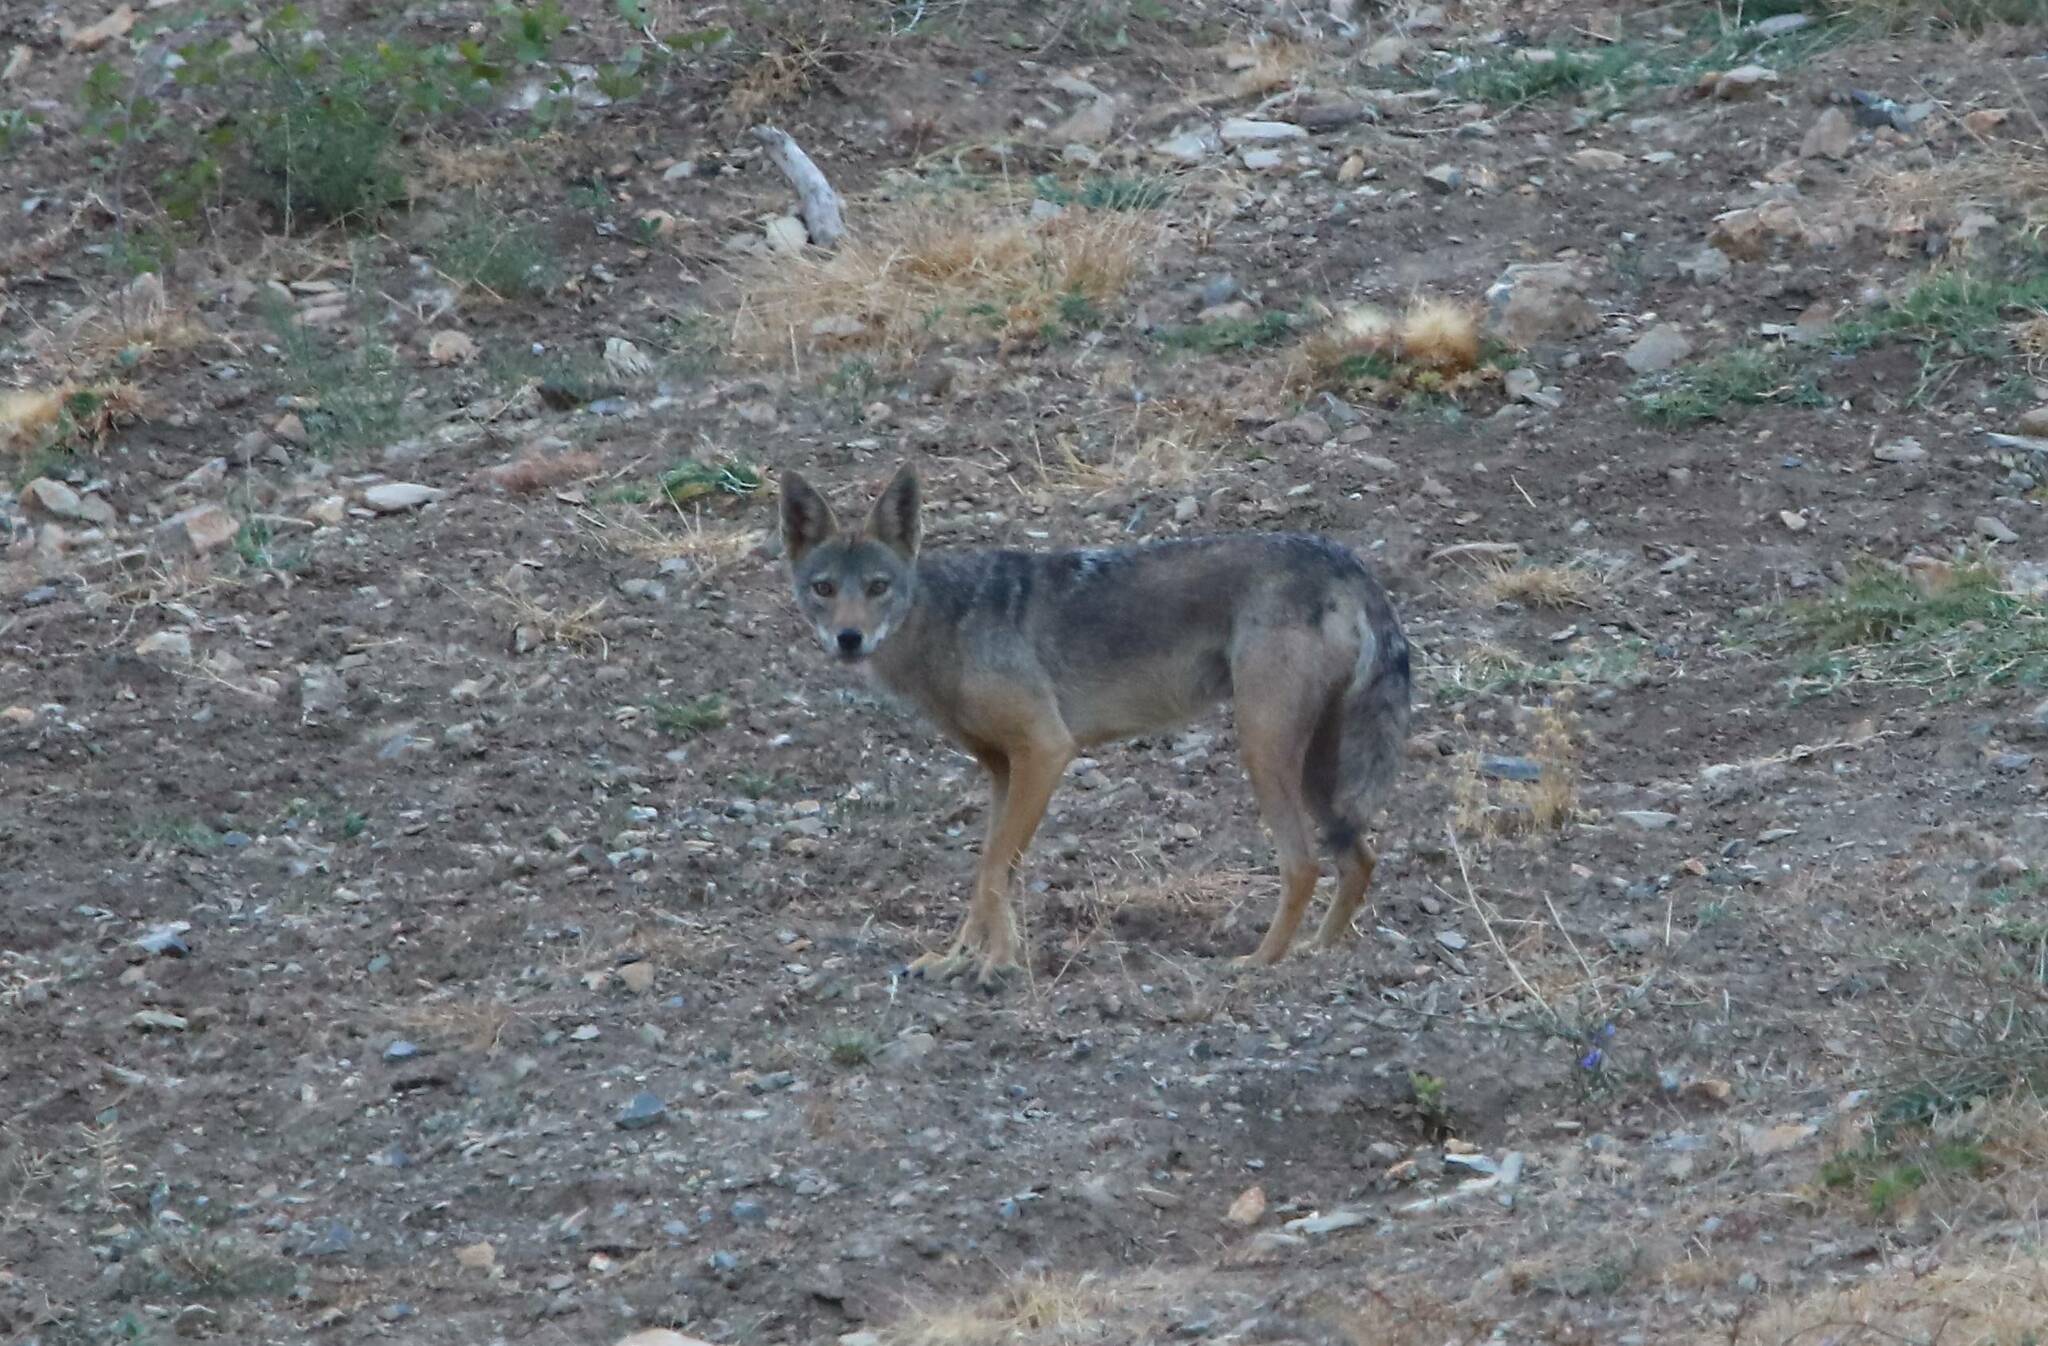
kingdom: Animalia
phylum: Chordata
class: Mammalia
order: Carnivora
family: Canidae
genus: Canis
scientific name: Canis lupaster
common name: African golden wolf
